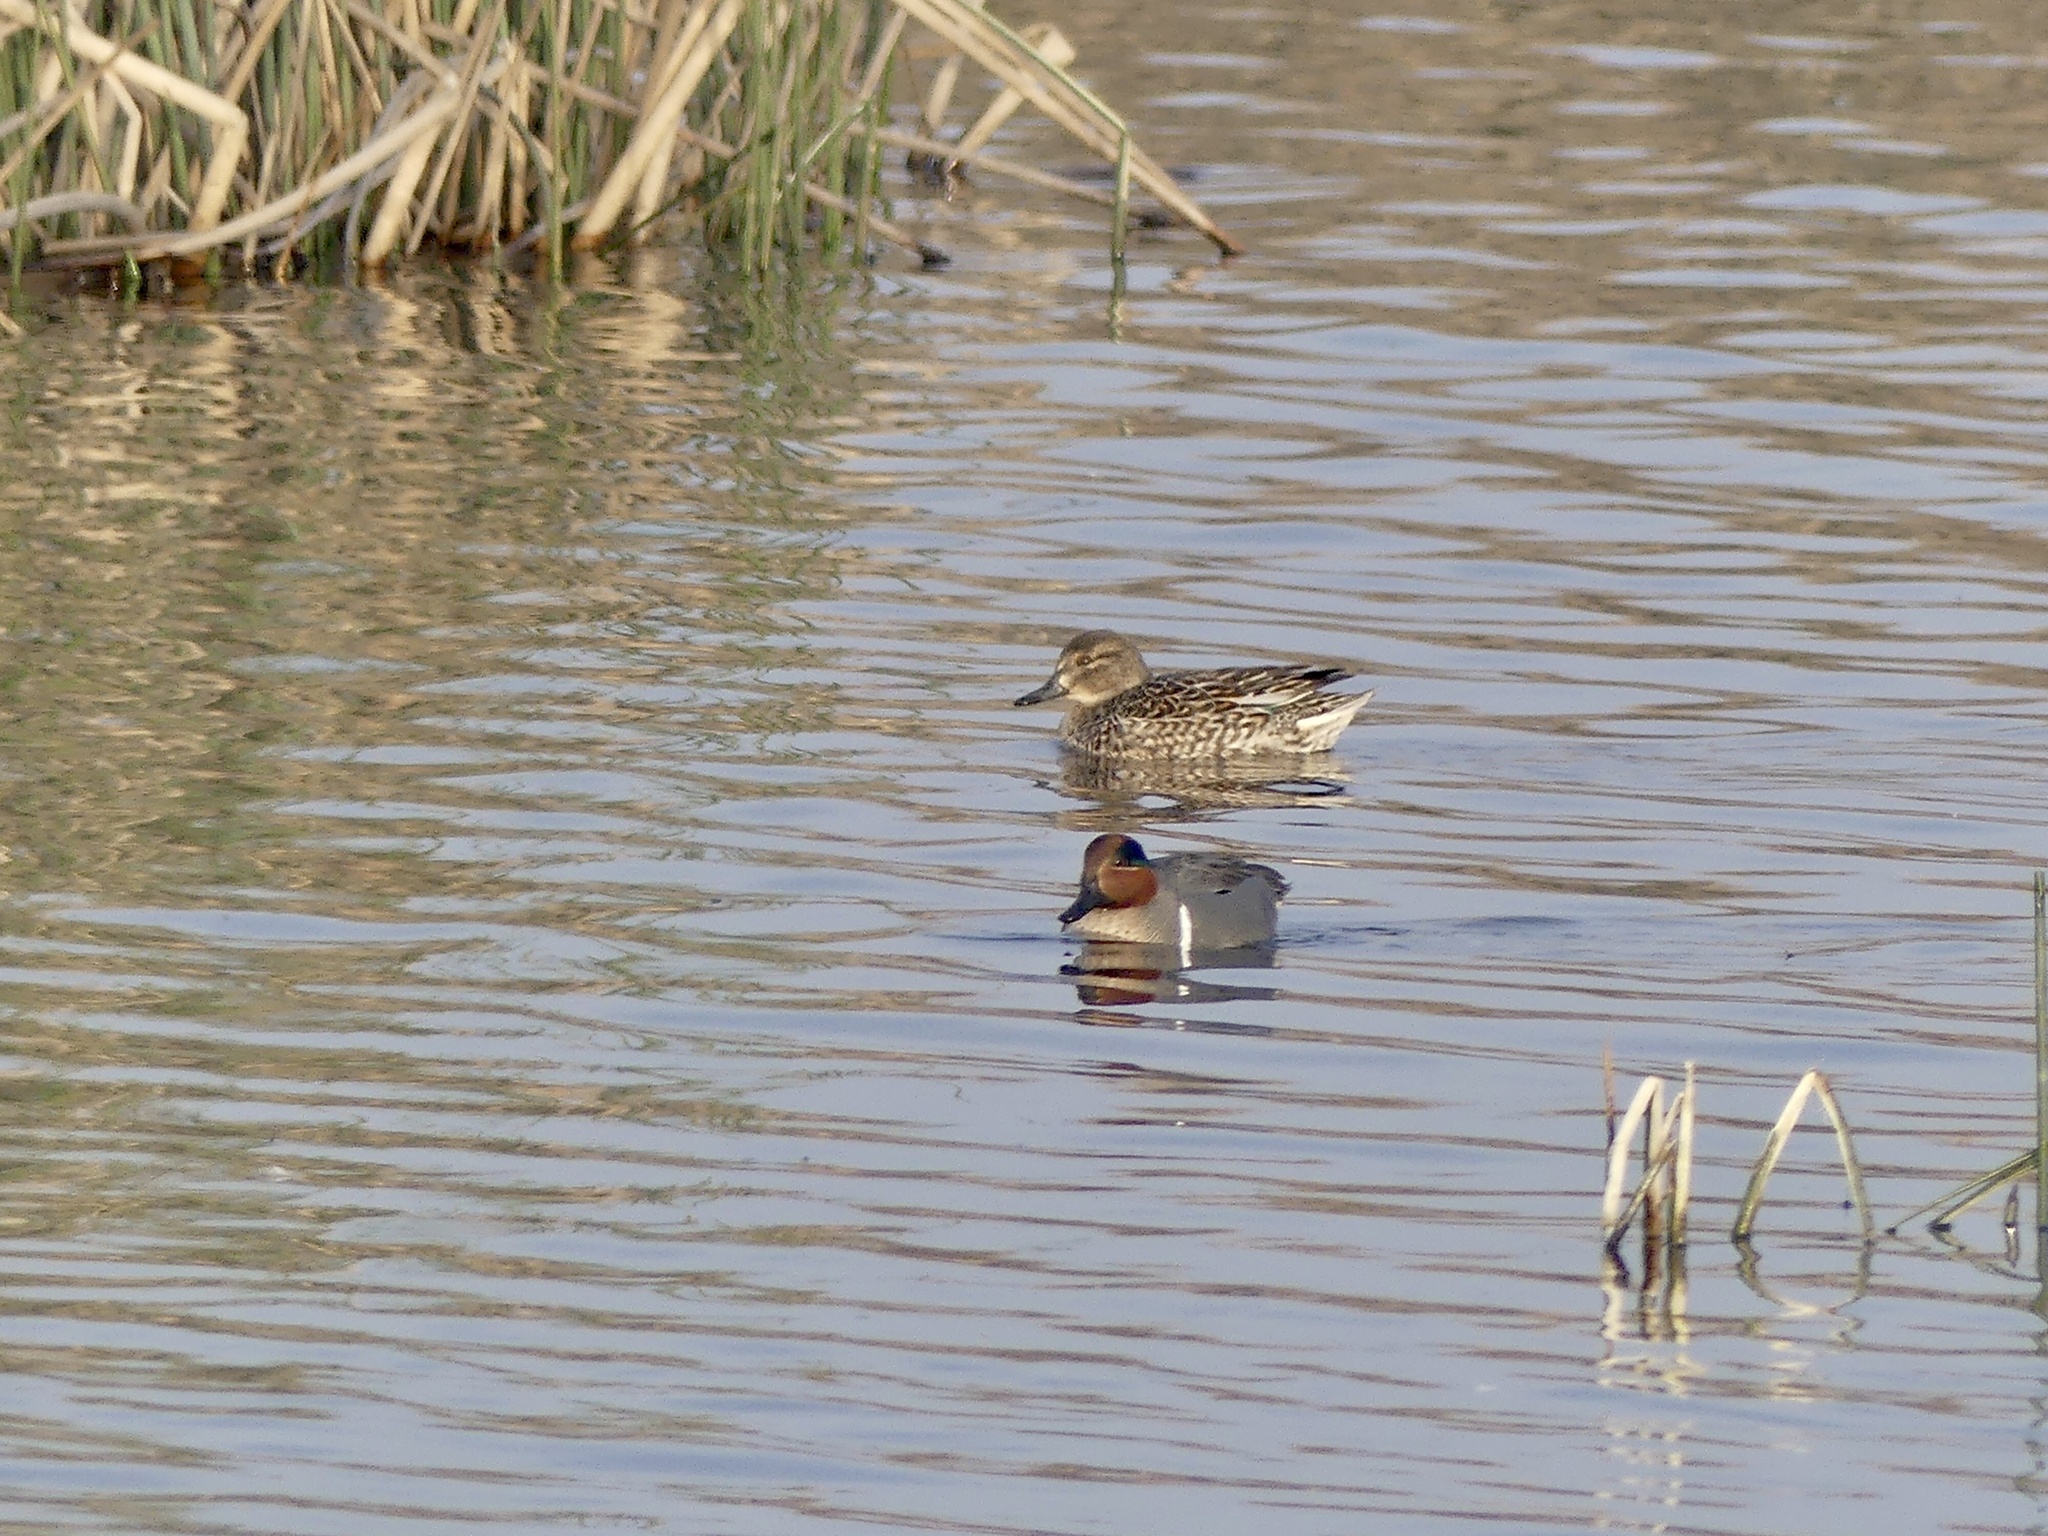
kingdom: Animalia
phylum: Chordata
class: Aves
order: Anseriformes
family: Anatidae
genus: Anas
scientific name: Anas crecca
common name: Eurasian teal
